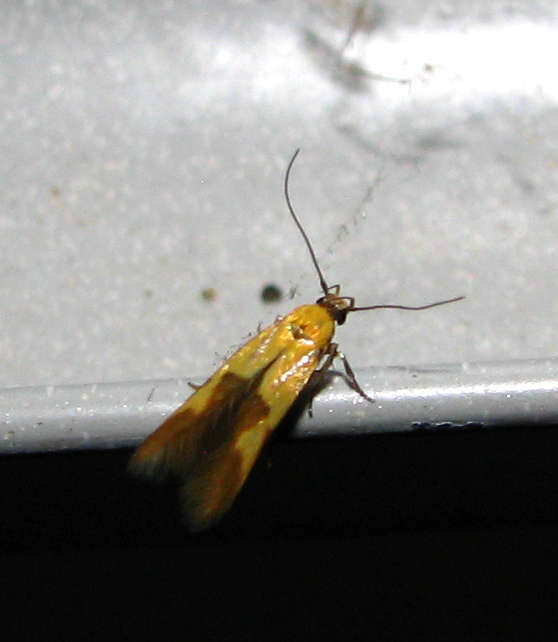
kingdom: Animalia
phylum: Arthropoda
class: Insecta
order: Lepidoptera
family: Stathmopodidae
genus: Stathmopoda
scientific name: Stathmopoda auriferella
